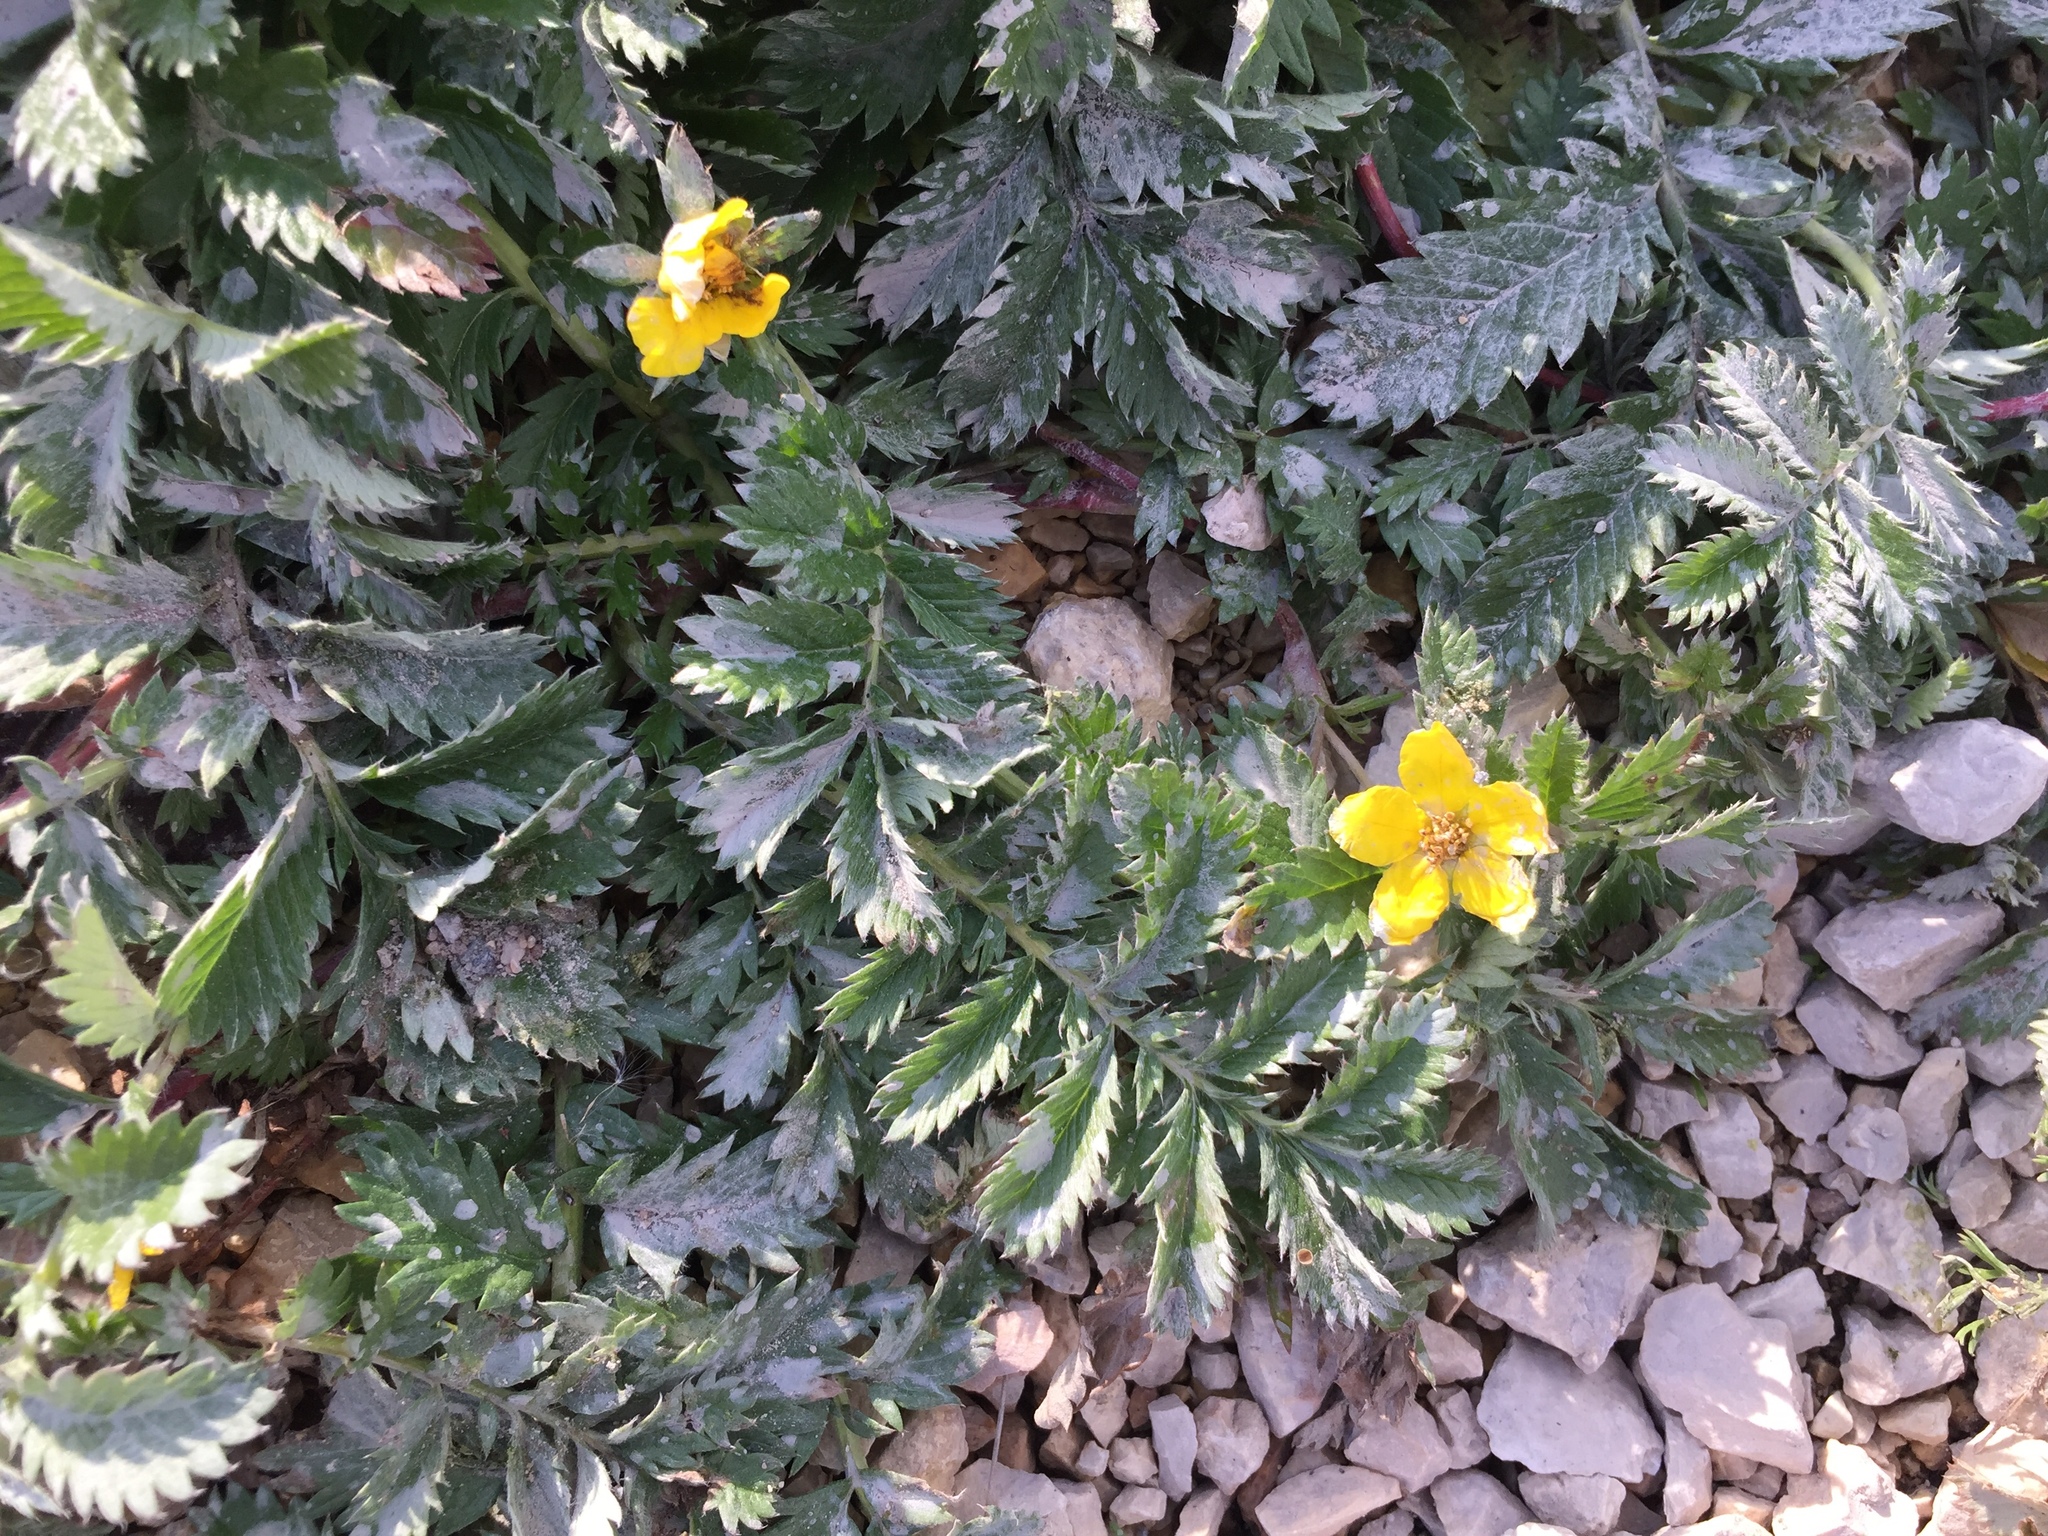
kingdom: Plantae
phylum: Tracheophyta
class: Magnoliopsida
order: Rosales
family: Rosaceae
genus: Argentina
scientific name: Argentina anserina
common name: Common silverweed
